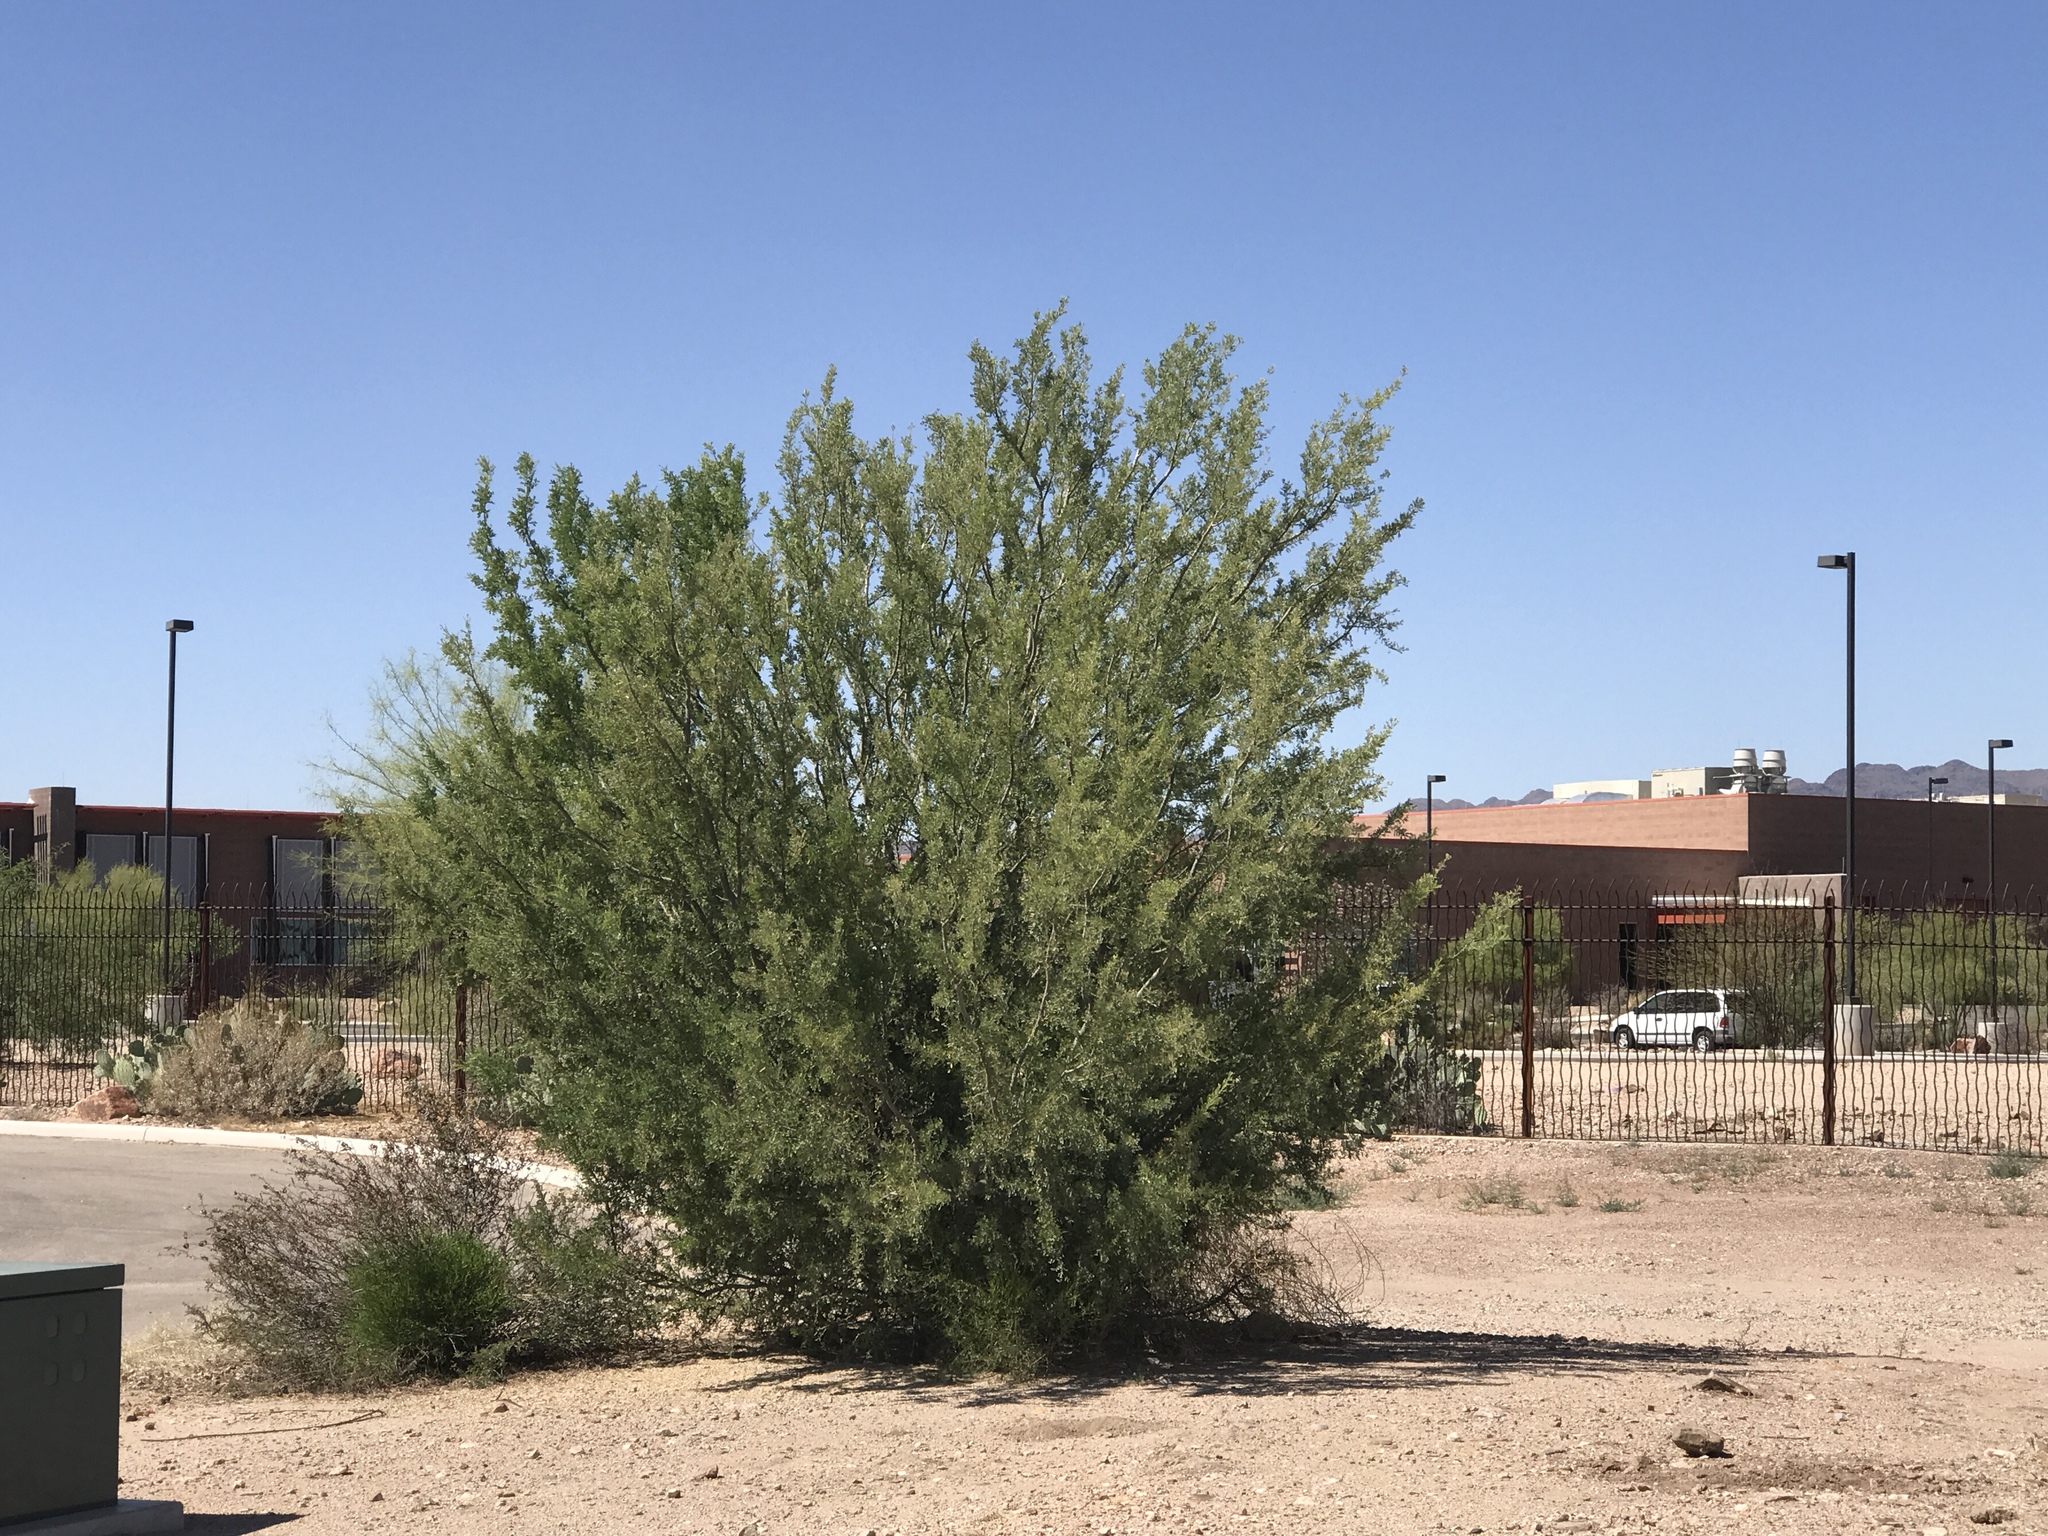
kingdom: Plantae
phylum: Tracheophyta
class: Magnoliopsida
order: Fabales
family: Fabaceae
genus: Olneya
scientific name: Olneya tesota
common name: Desert ironwood
